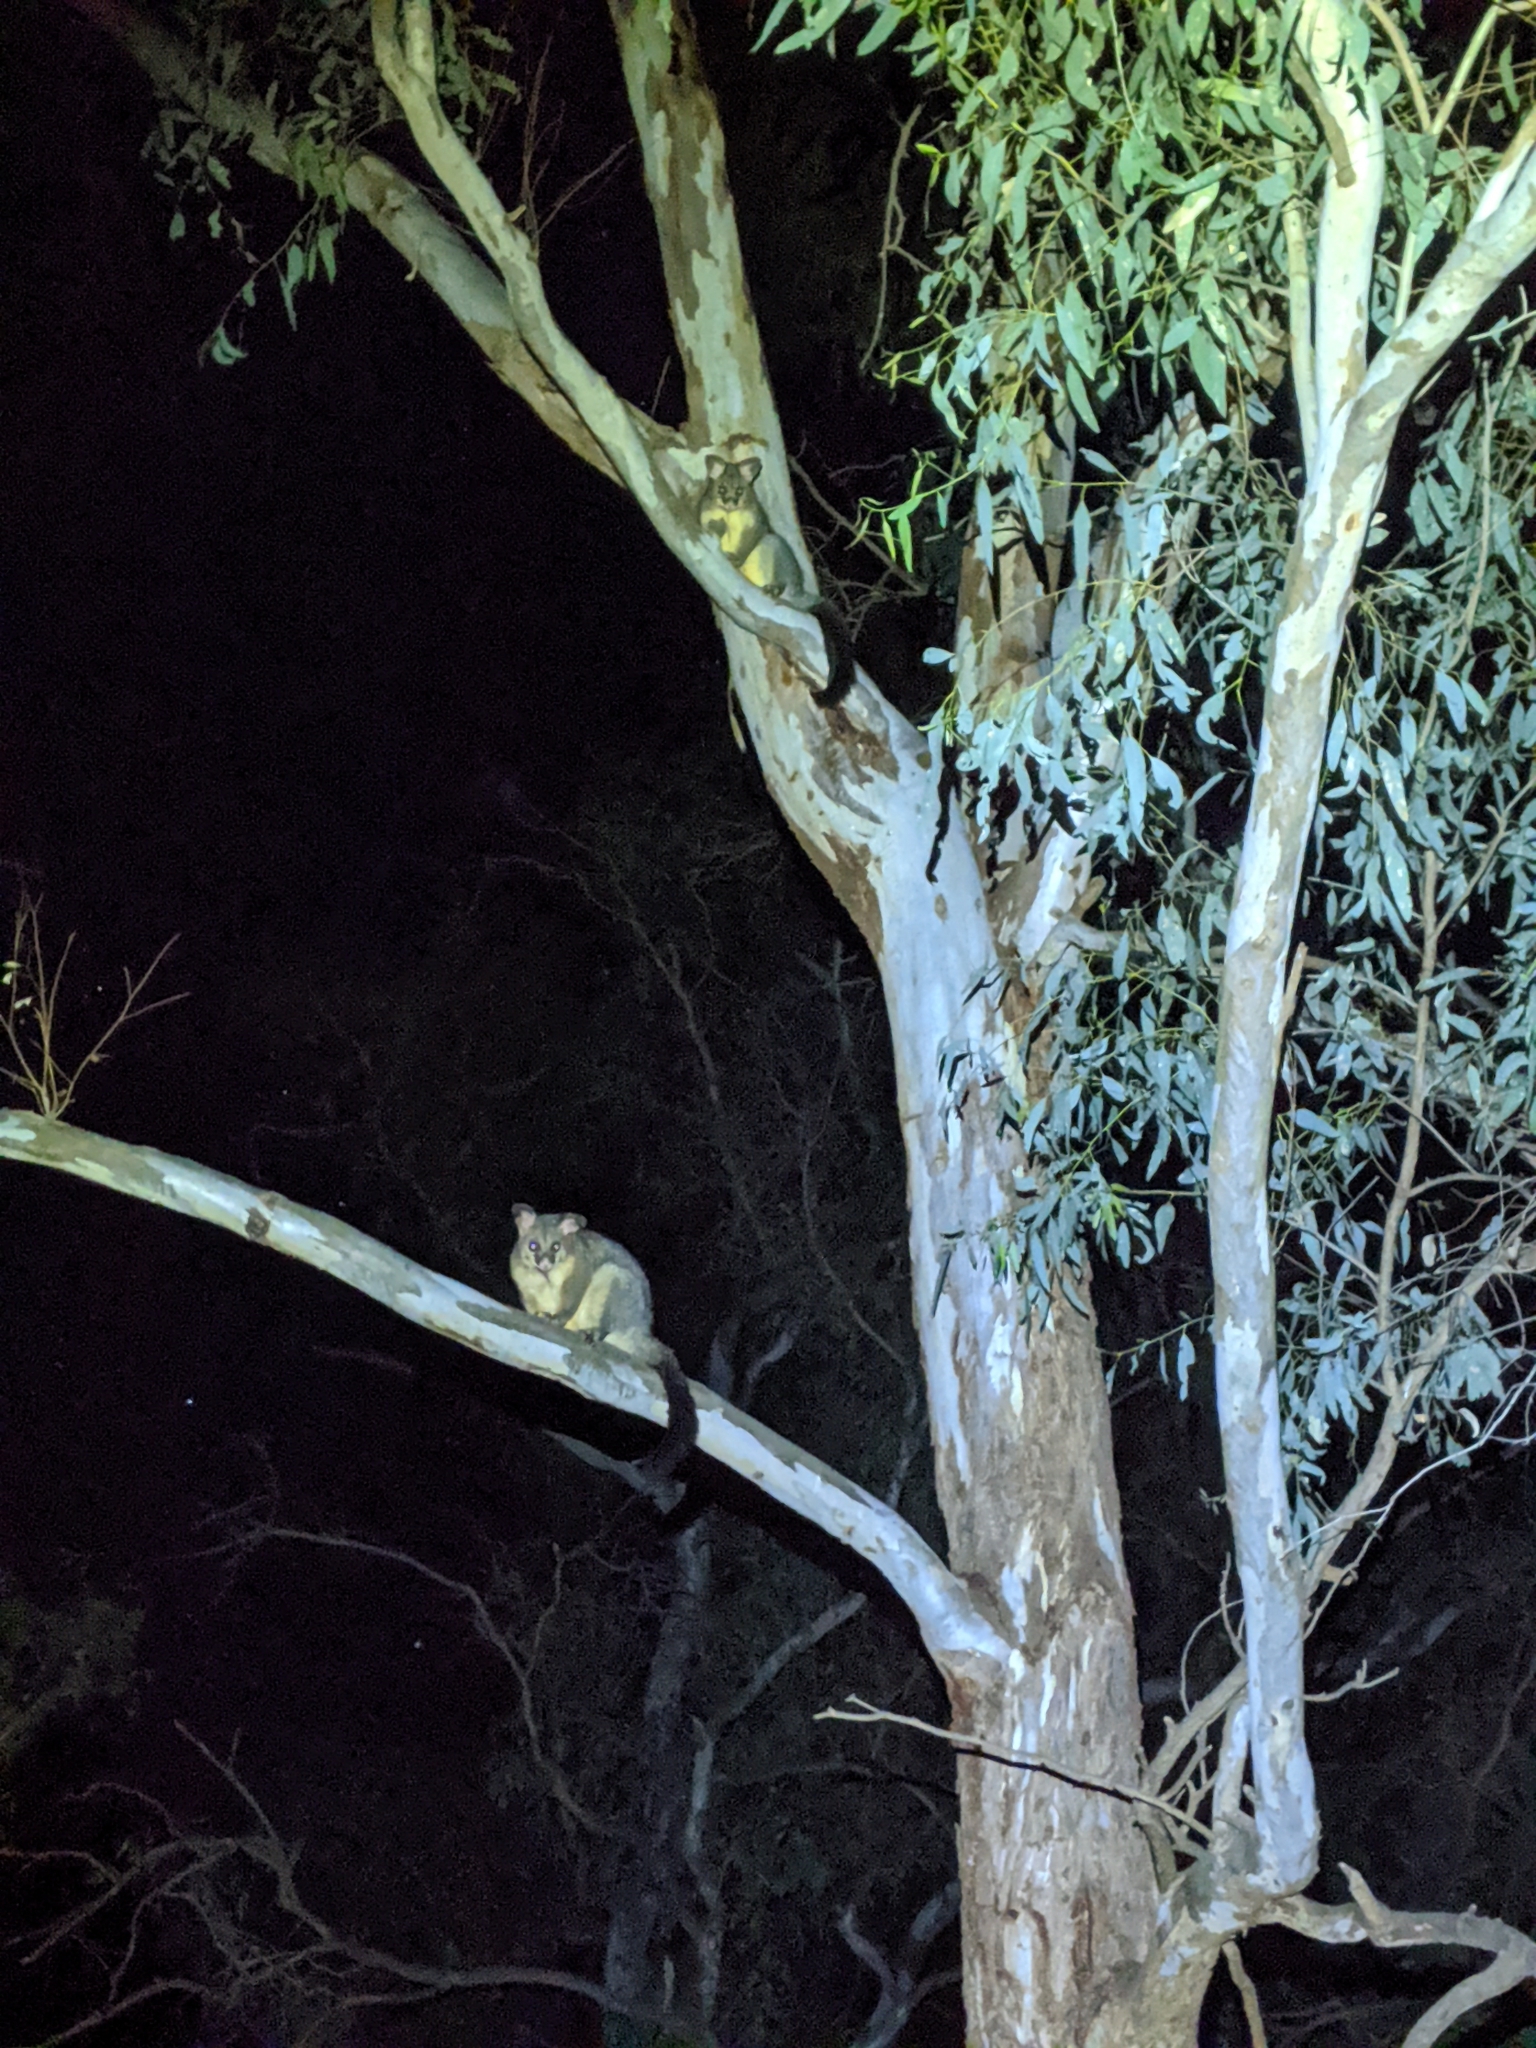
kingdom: Animalia
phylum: Chordata
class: Mammalia
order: Diprotodontia
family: Phalangeridae
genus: Trichosurus
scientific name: Trichosurus vulpecula
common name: Common brushtail
